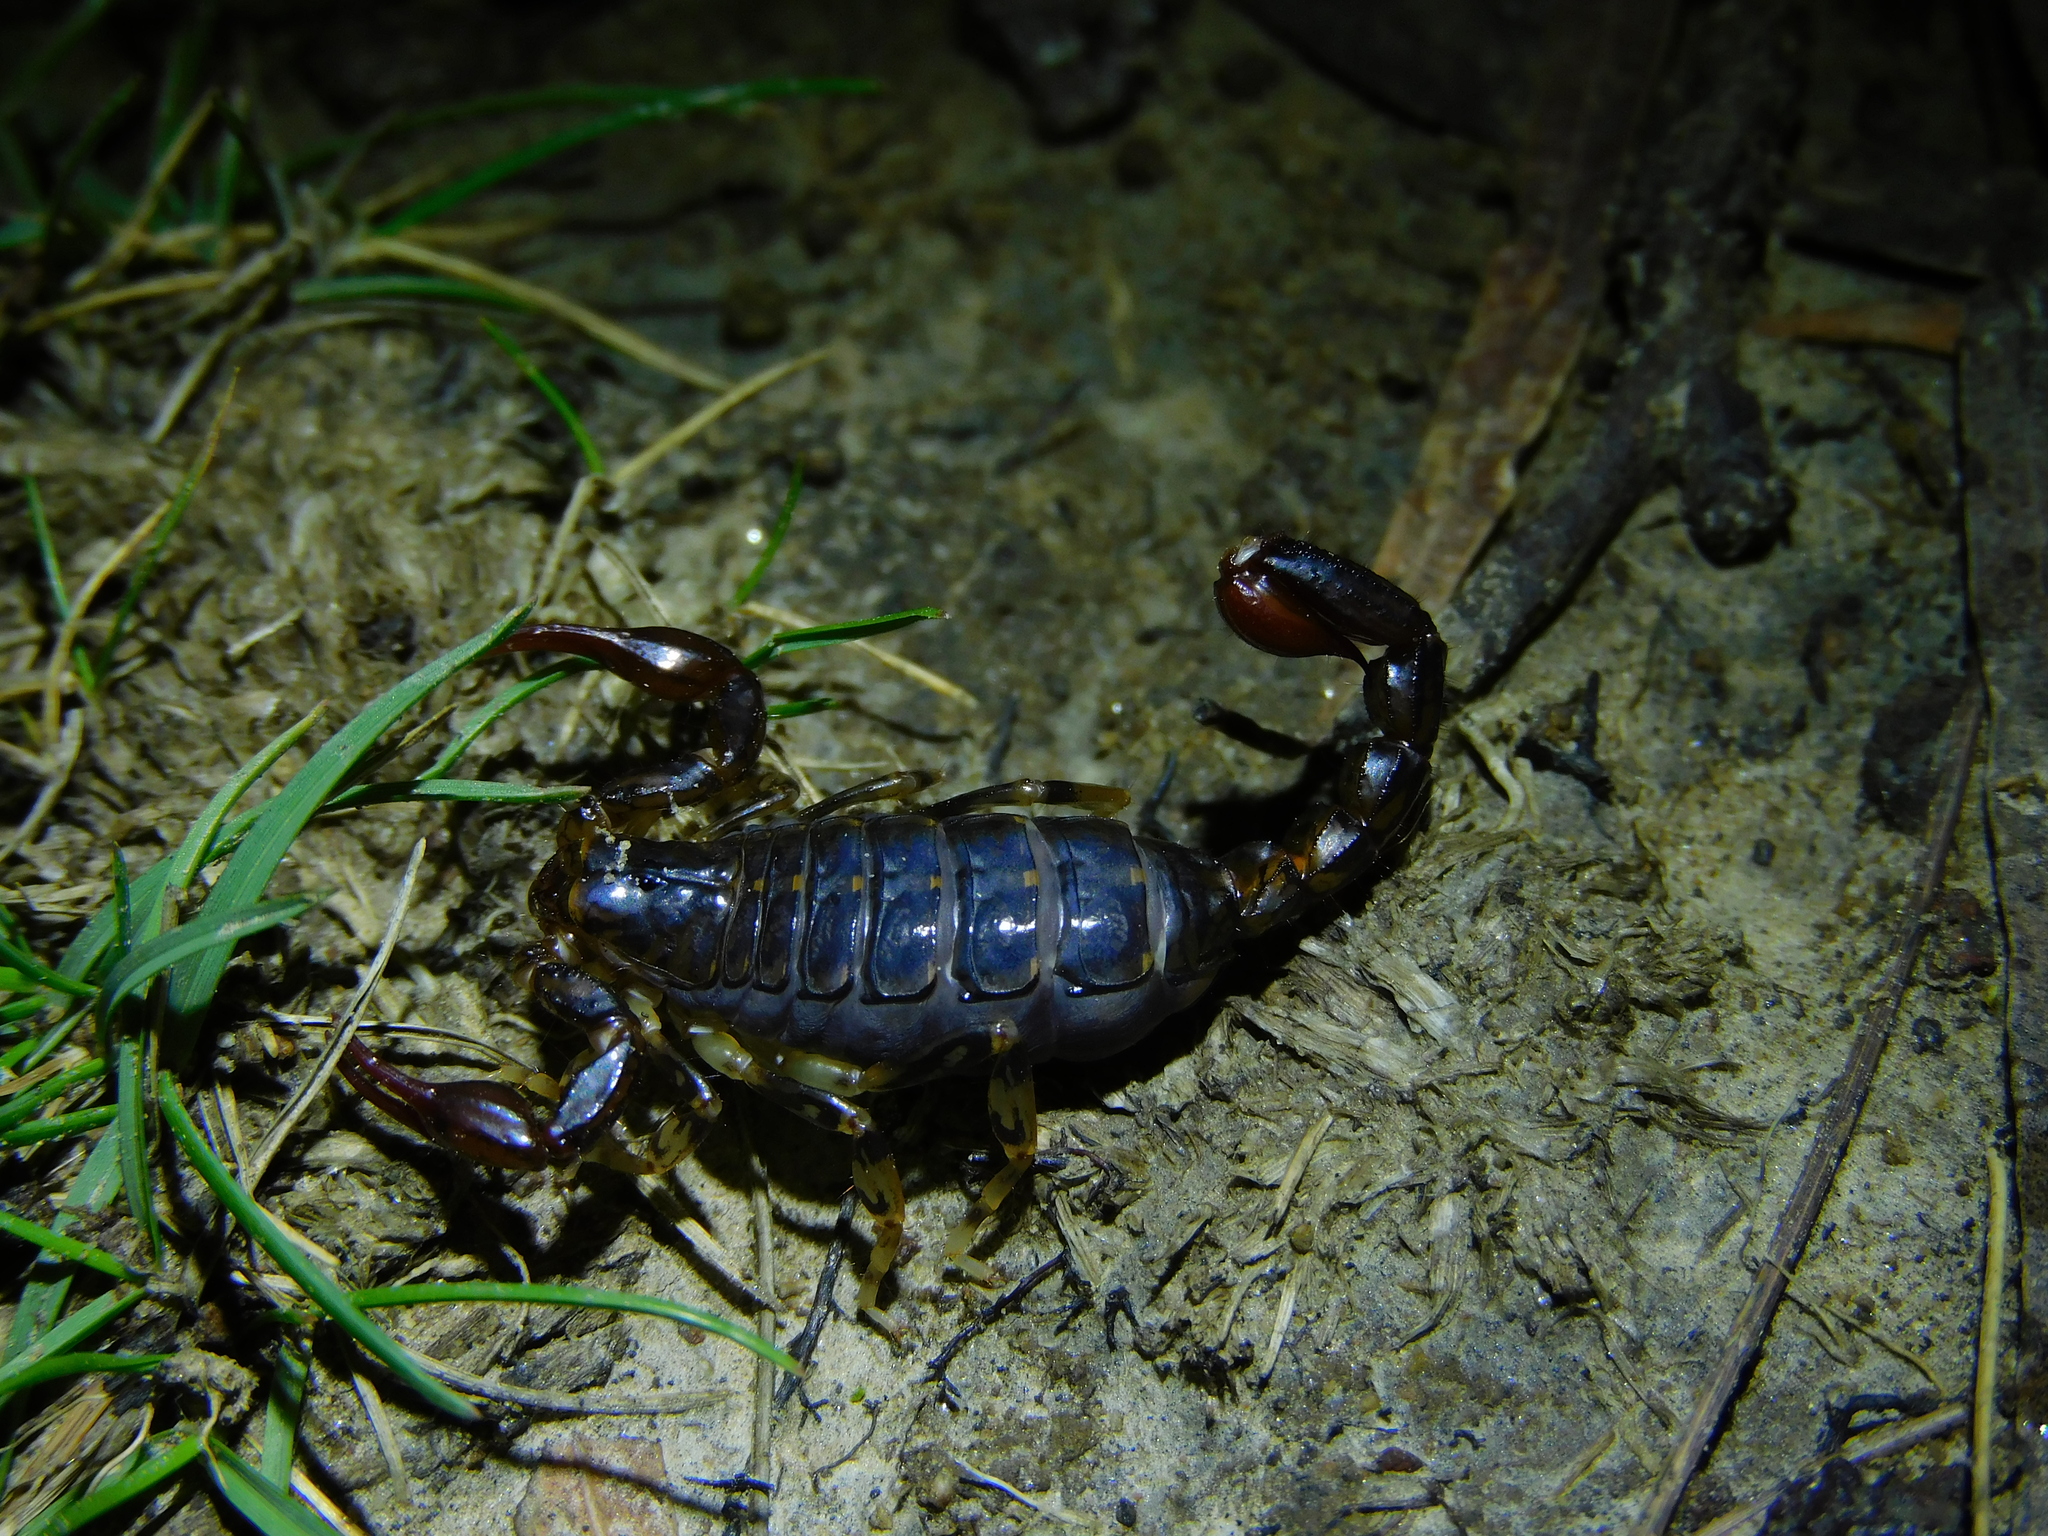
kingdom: Animalia
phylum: Arthropoda
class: Arachnida
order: Scorpiones
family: Bothriuridae
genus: Cercophonius
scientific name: Cercophonius squama
